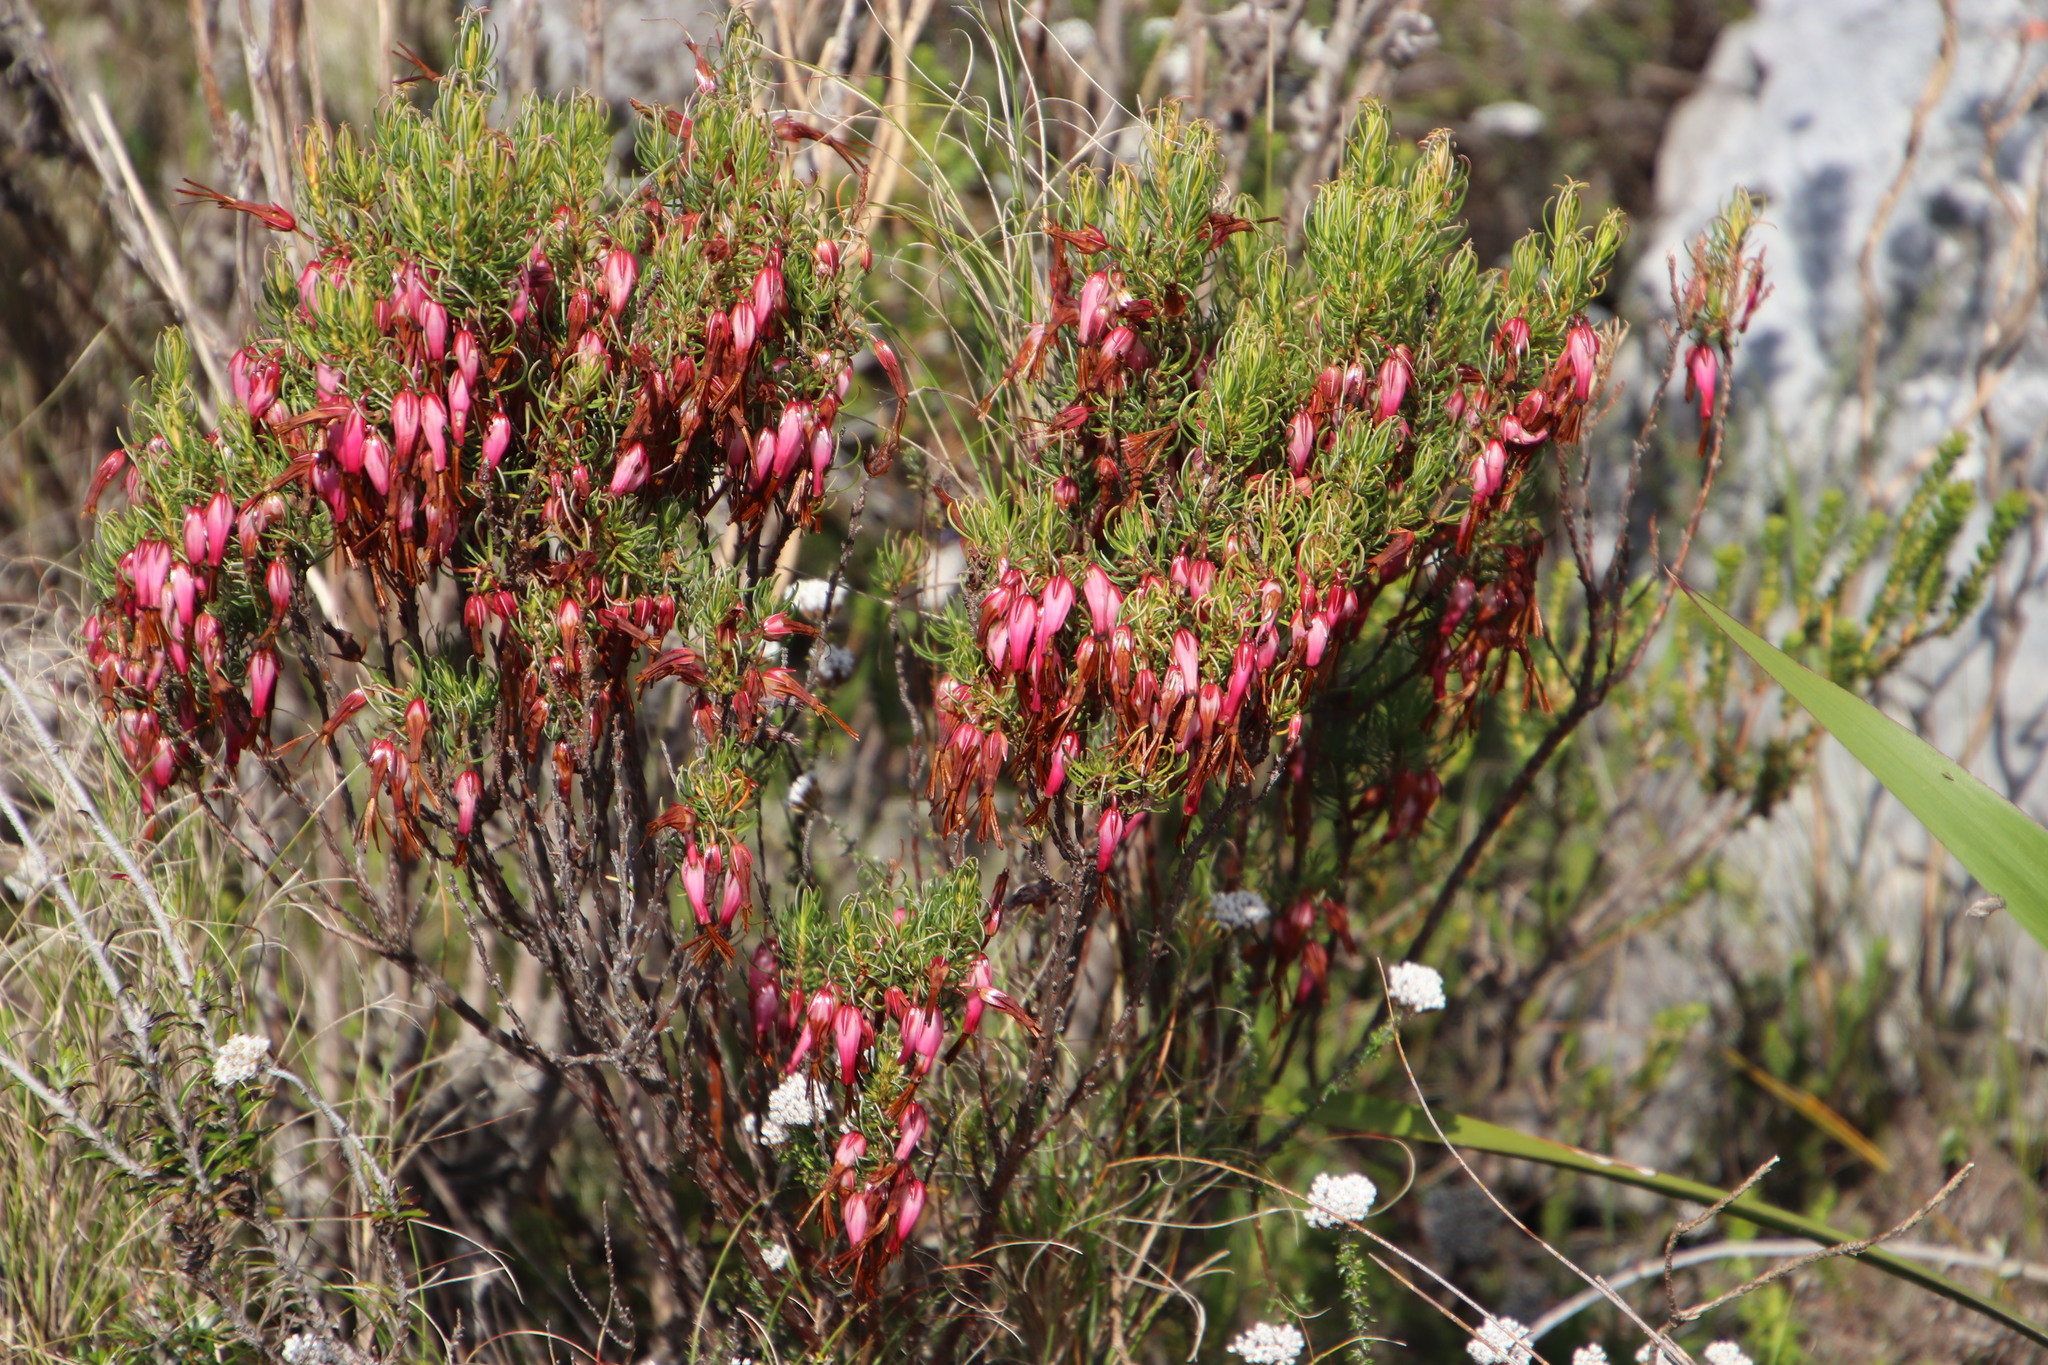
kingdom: Plantae
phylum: Tracheophyta
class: Magnoliopsida
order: Ericales
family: Ericaceae
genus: Erica
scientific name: Erica plukenetii
